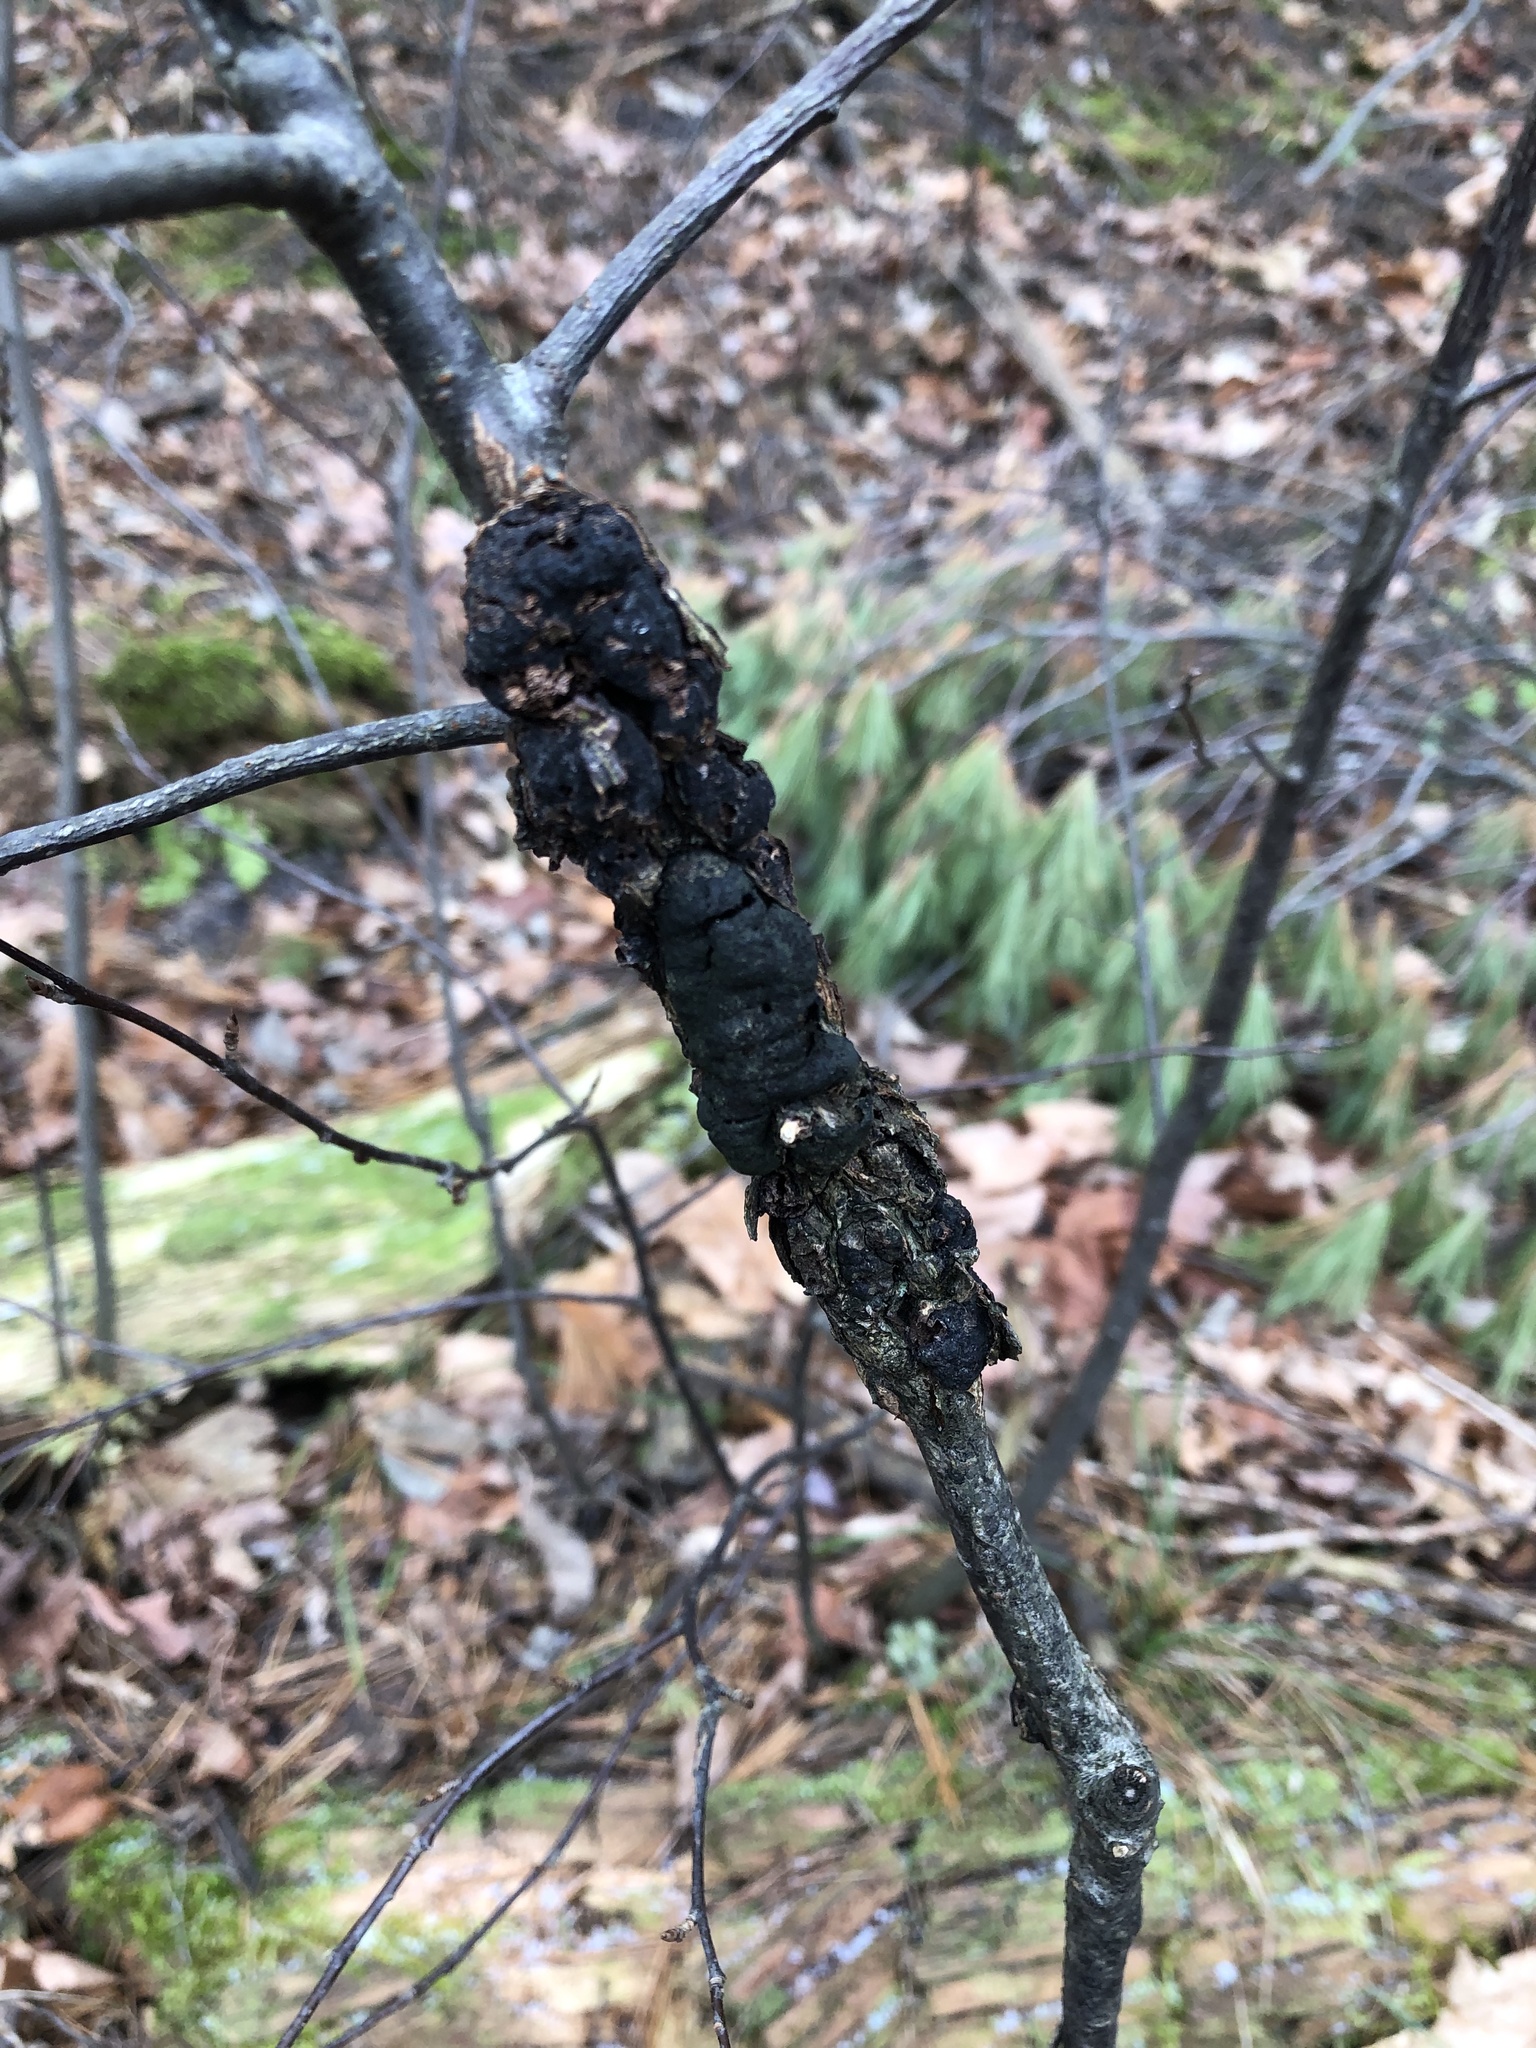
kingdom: Fungi
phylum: Ascomycota
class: Dothideomycetes
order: Venturiales
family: Venturiaceae
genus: Apiosporina
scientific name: Apiosporina morbosa
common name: Black knot
